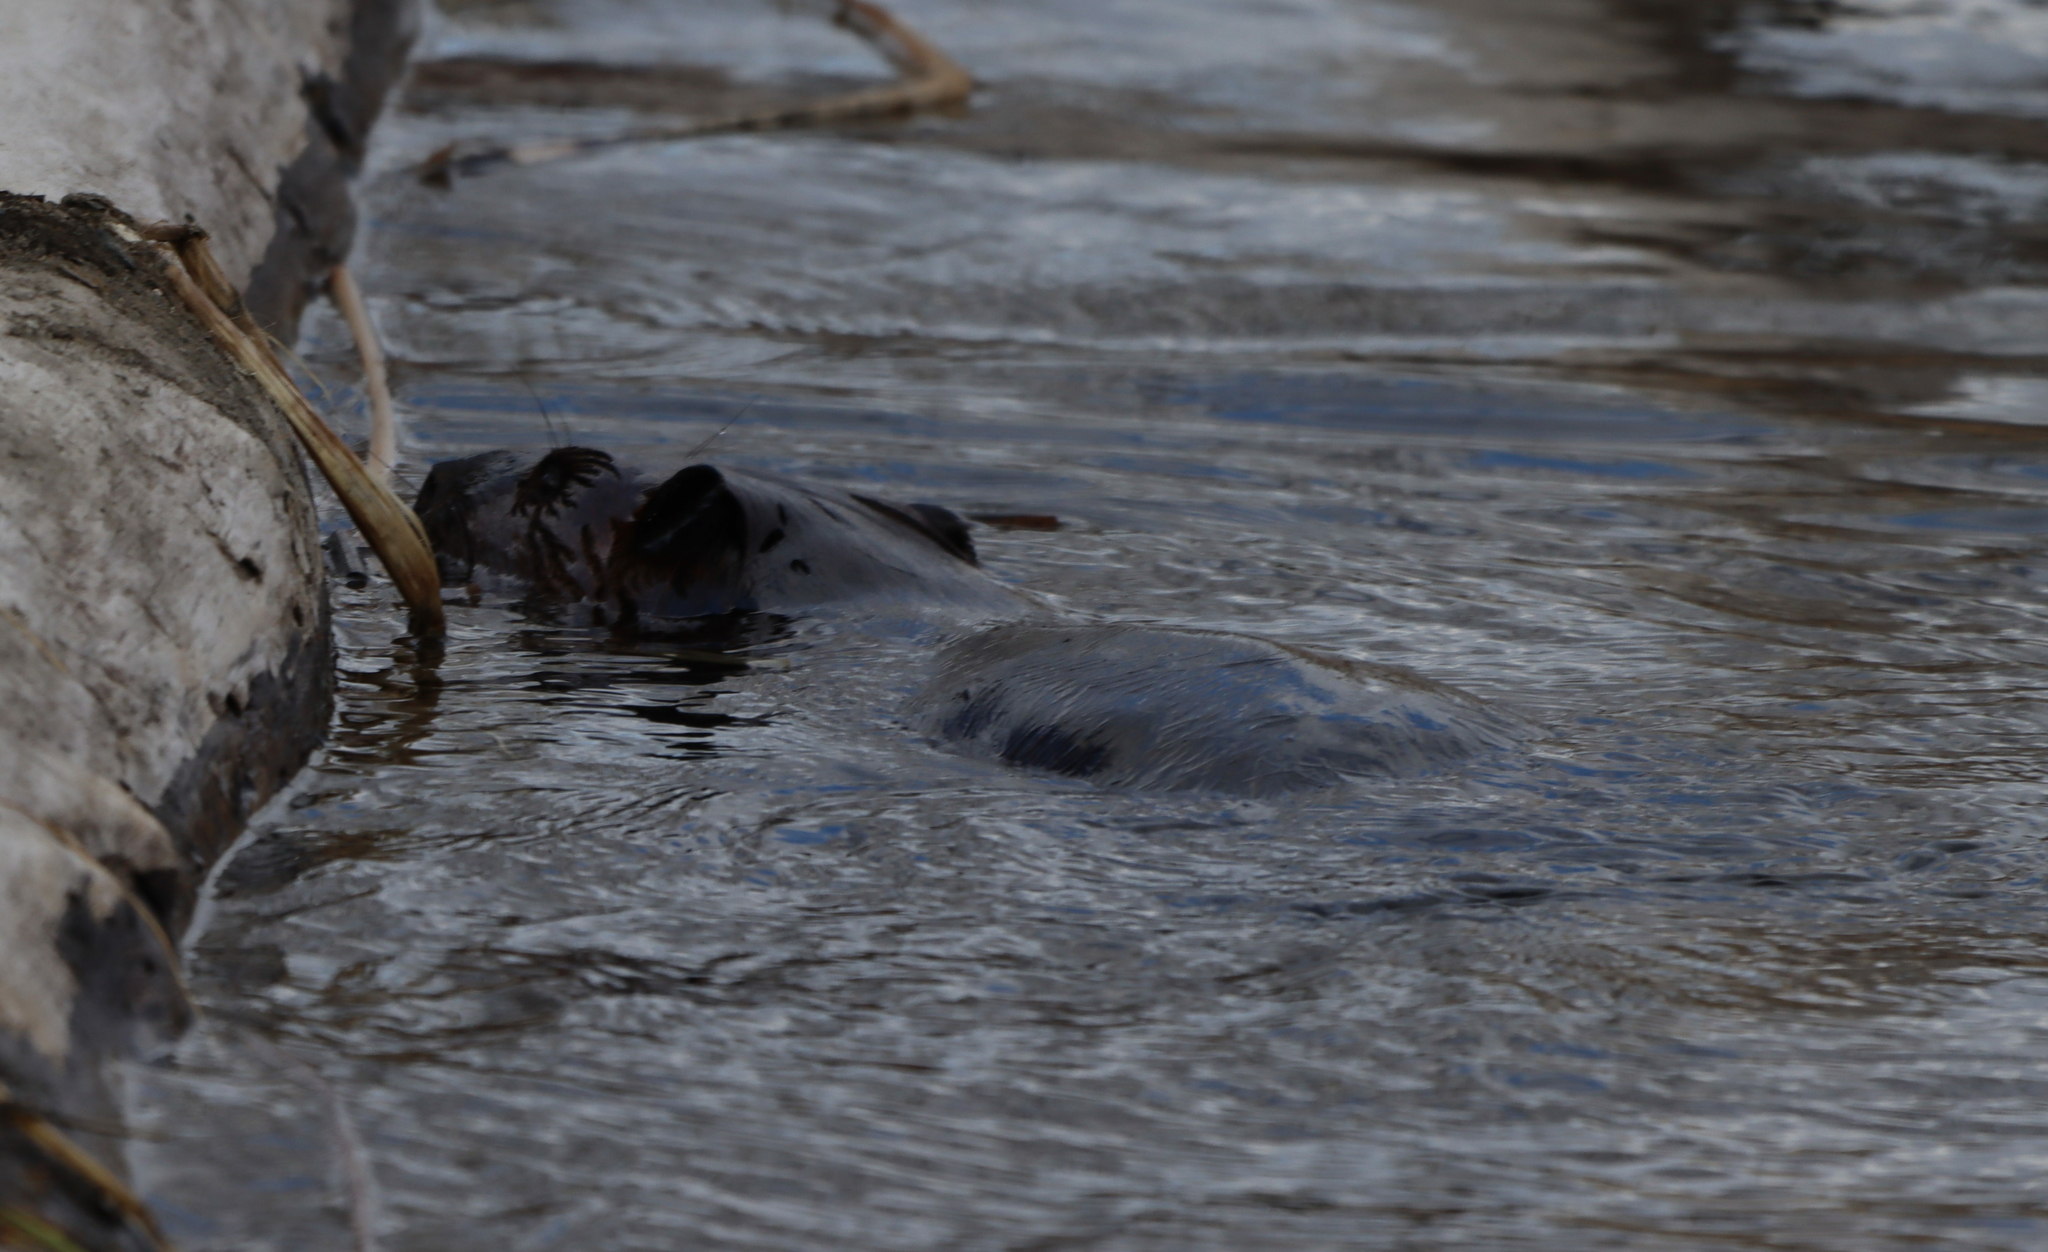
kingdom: Animalia
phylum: Chordata
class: Mammalia
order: Rodentia
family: Castoridae
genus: Castor
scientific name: Castor canadensis
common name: American beaver
